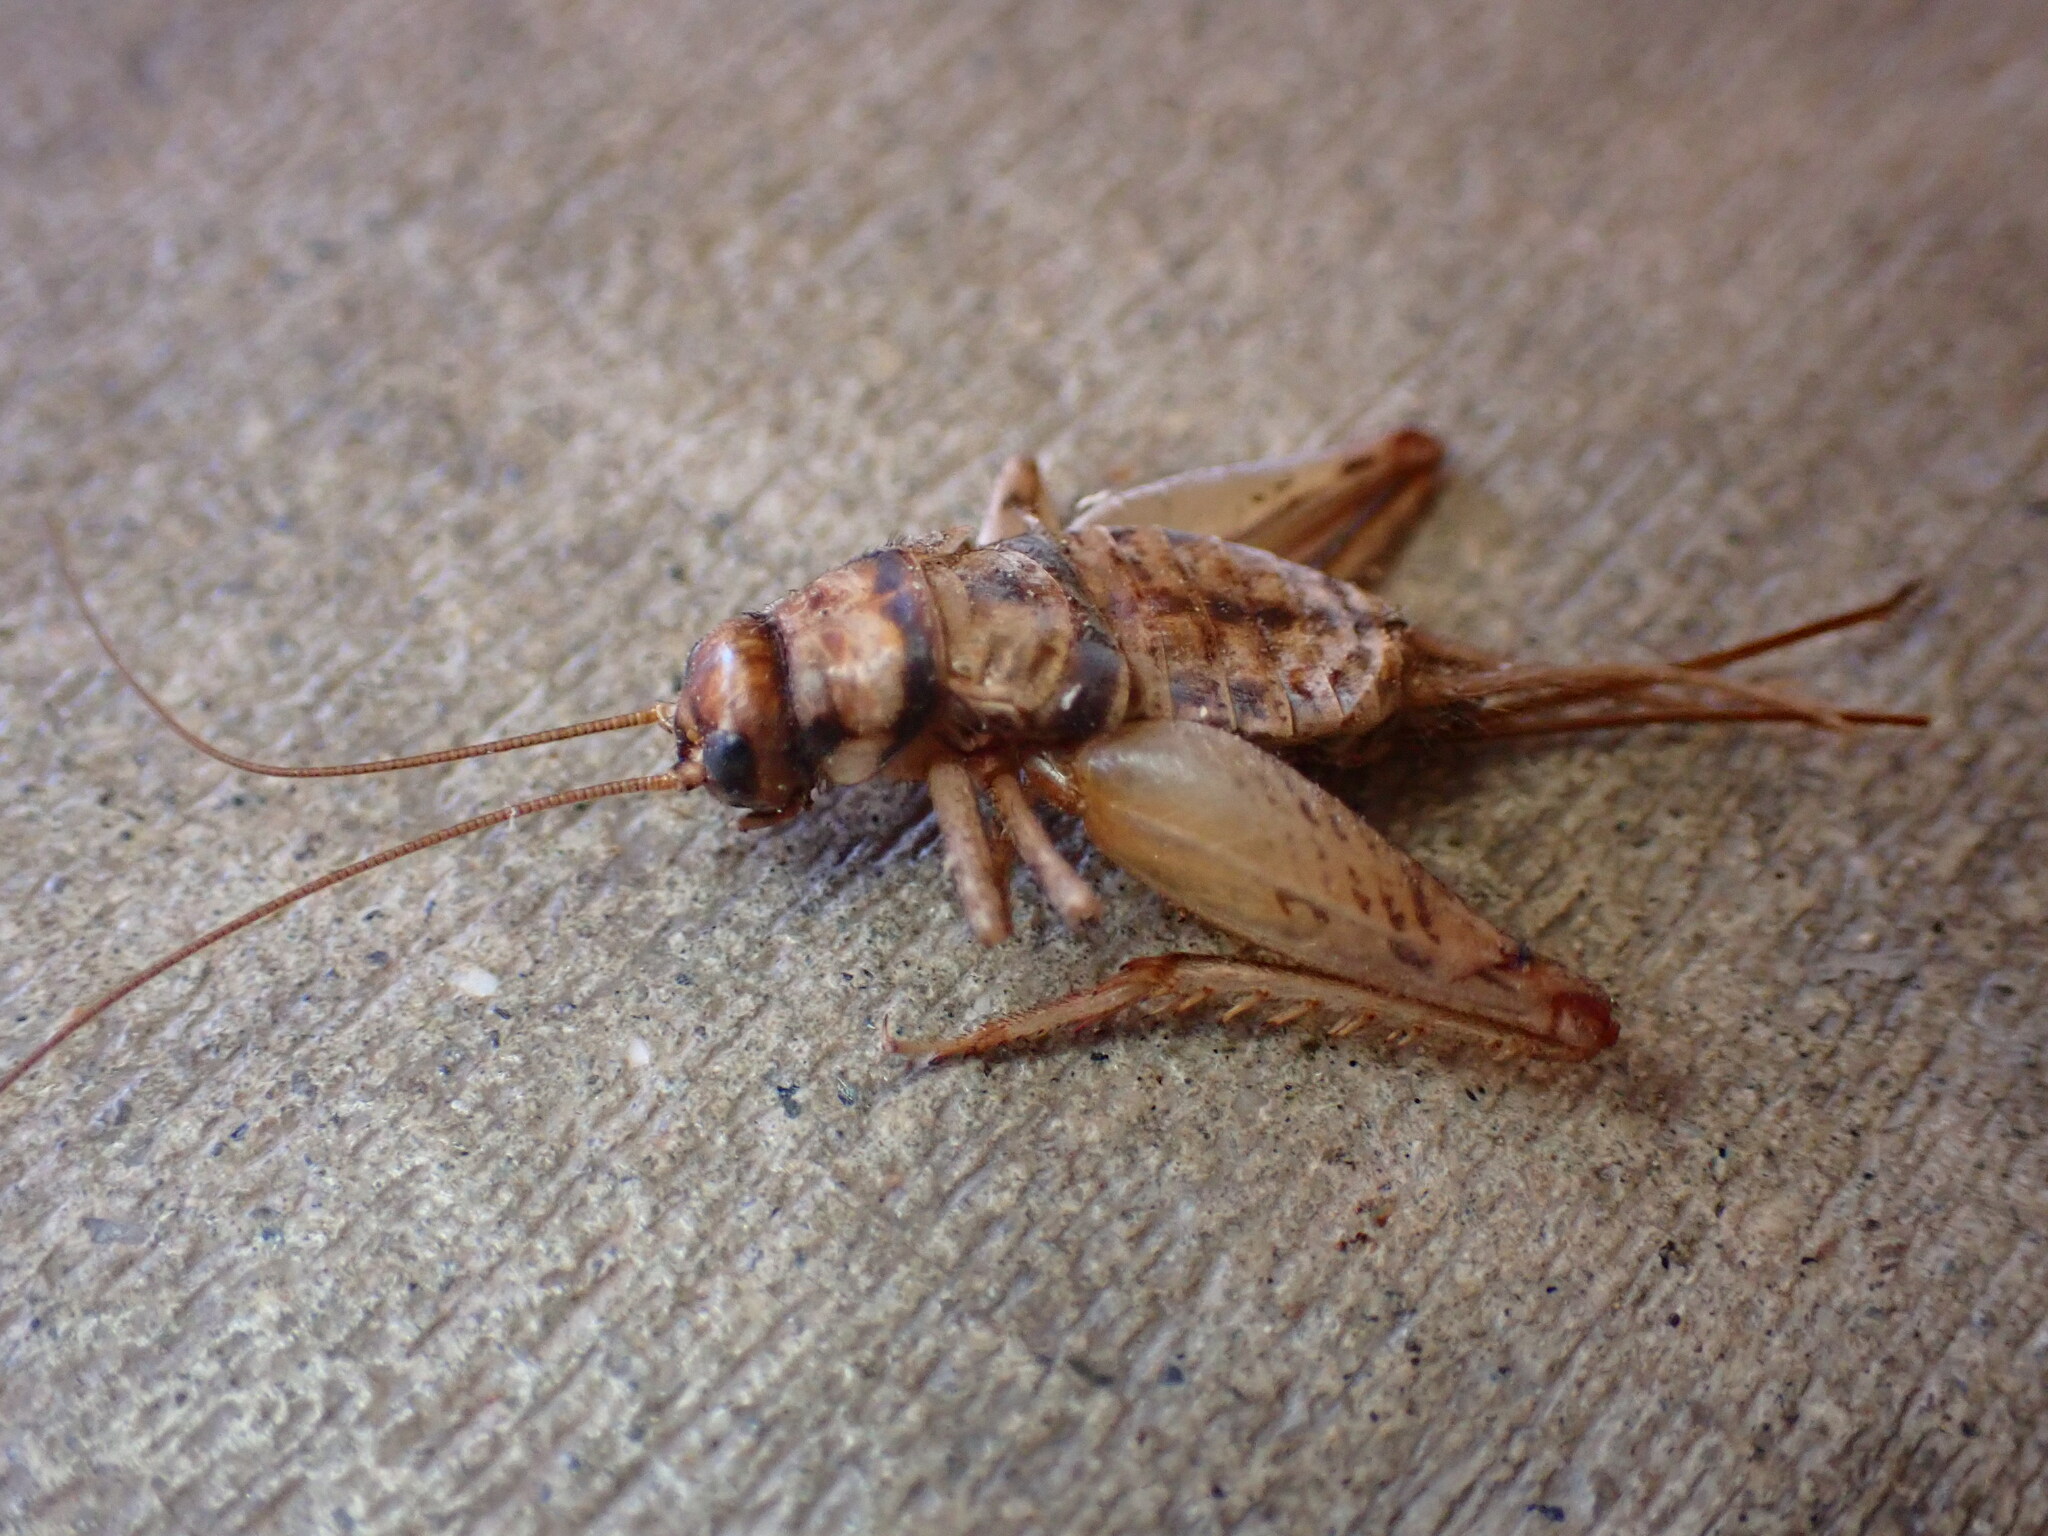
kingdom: Animalia
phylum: Arthropoda
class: Insecta
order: Orthoptera
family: Gryllidae
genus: Gryllodes
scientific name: Gryllodes sigillatus
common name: Tropical house cricket
